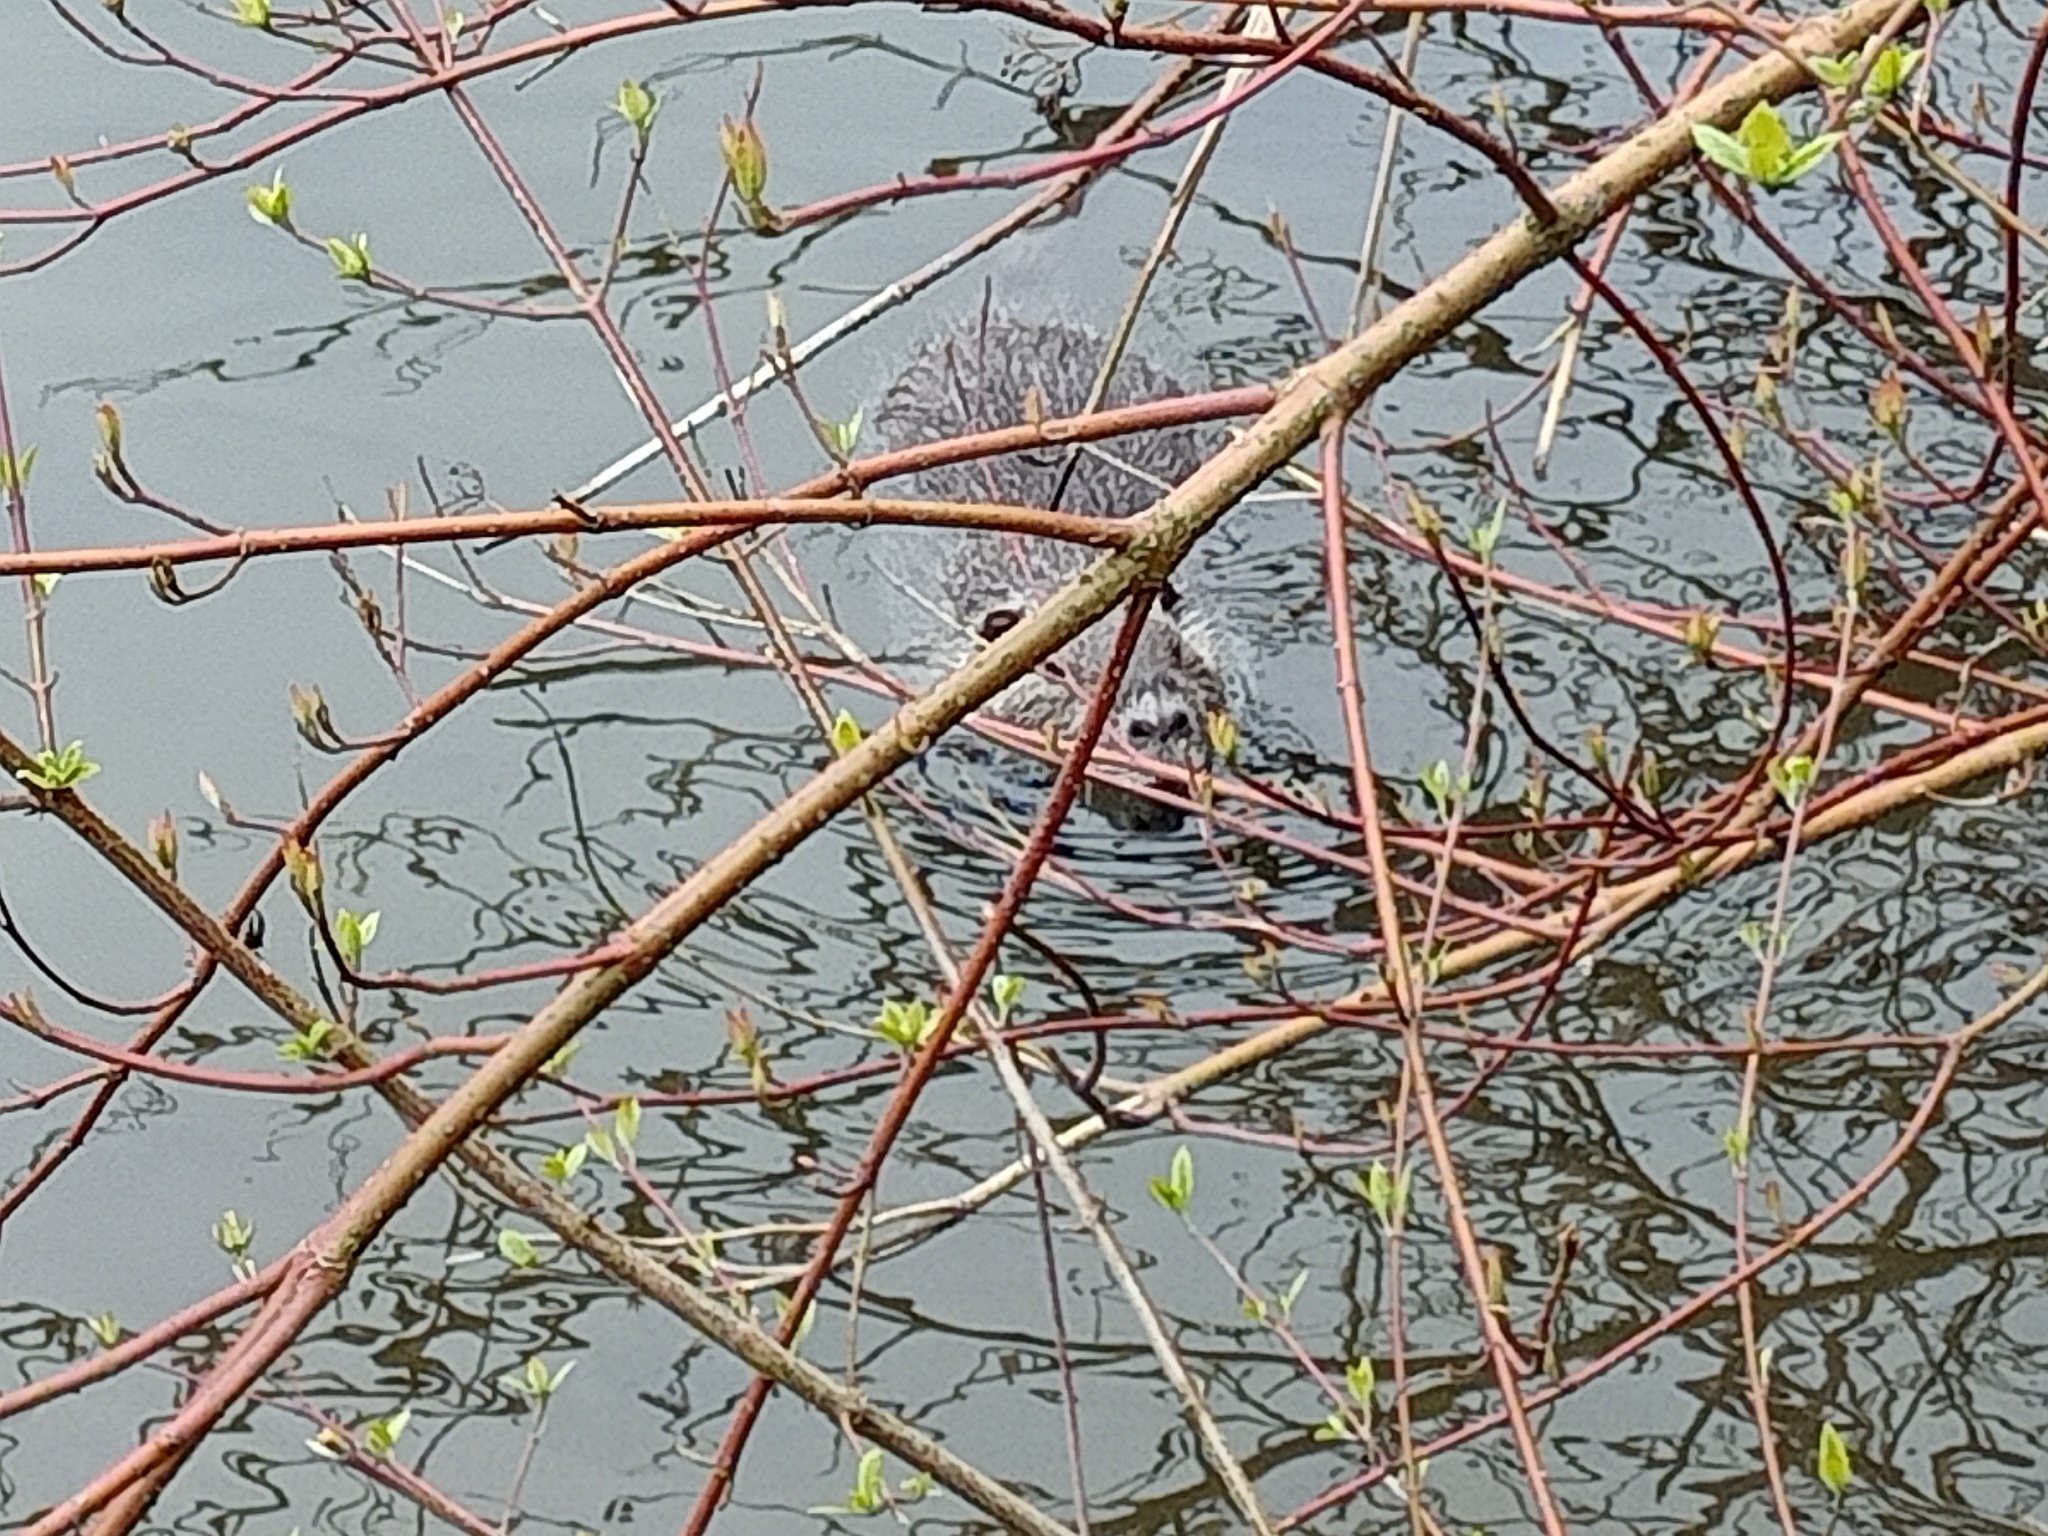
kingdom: Animalia
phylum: Chordata
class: Mammalia
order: Rodentia
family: Myocastoridae
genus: Myocastor
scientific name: Myocastor coypus
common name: Coypu
